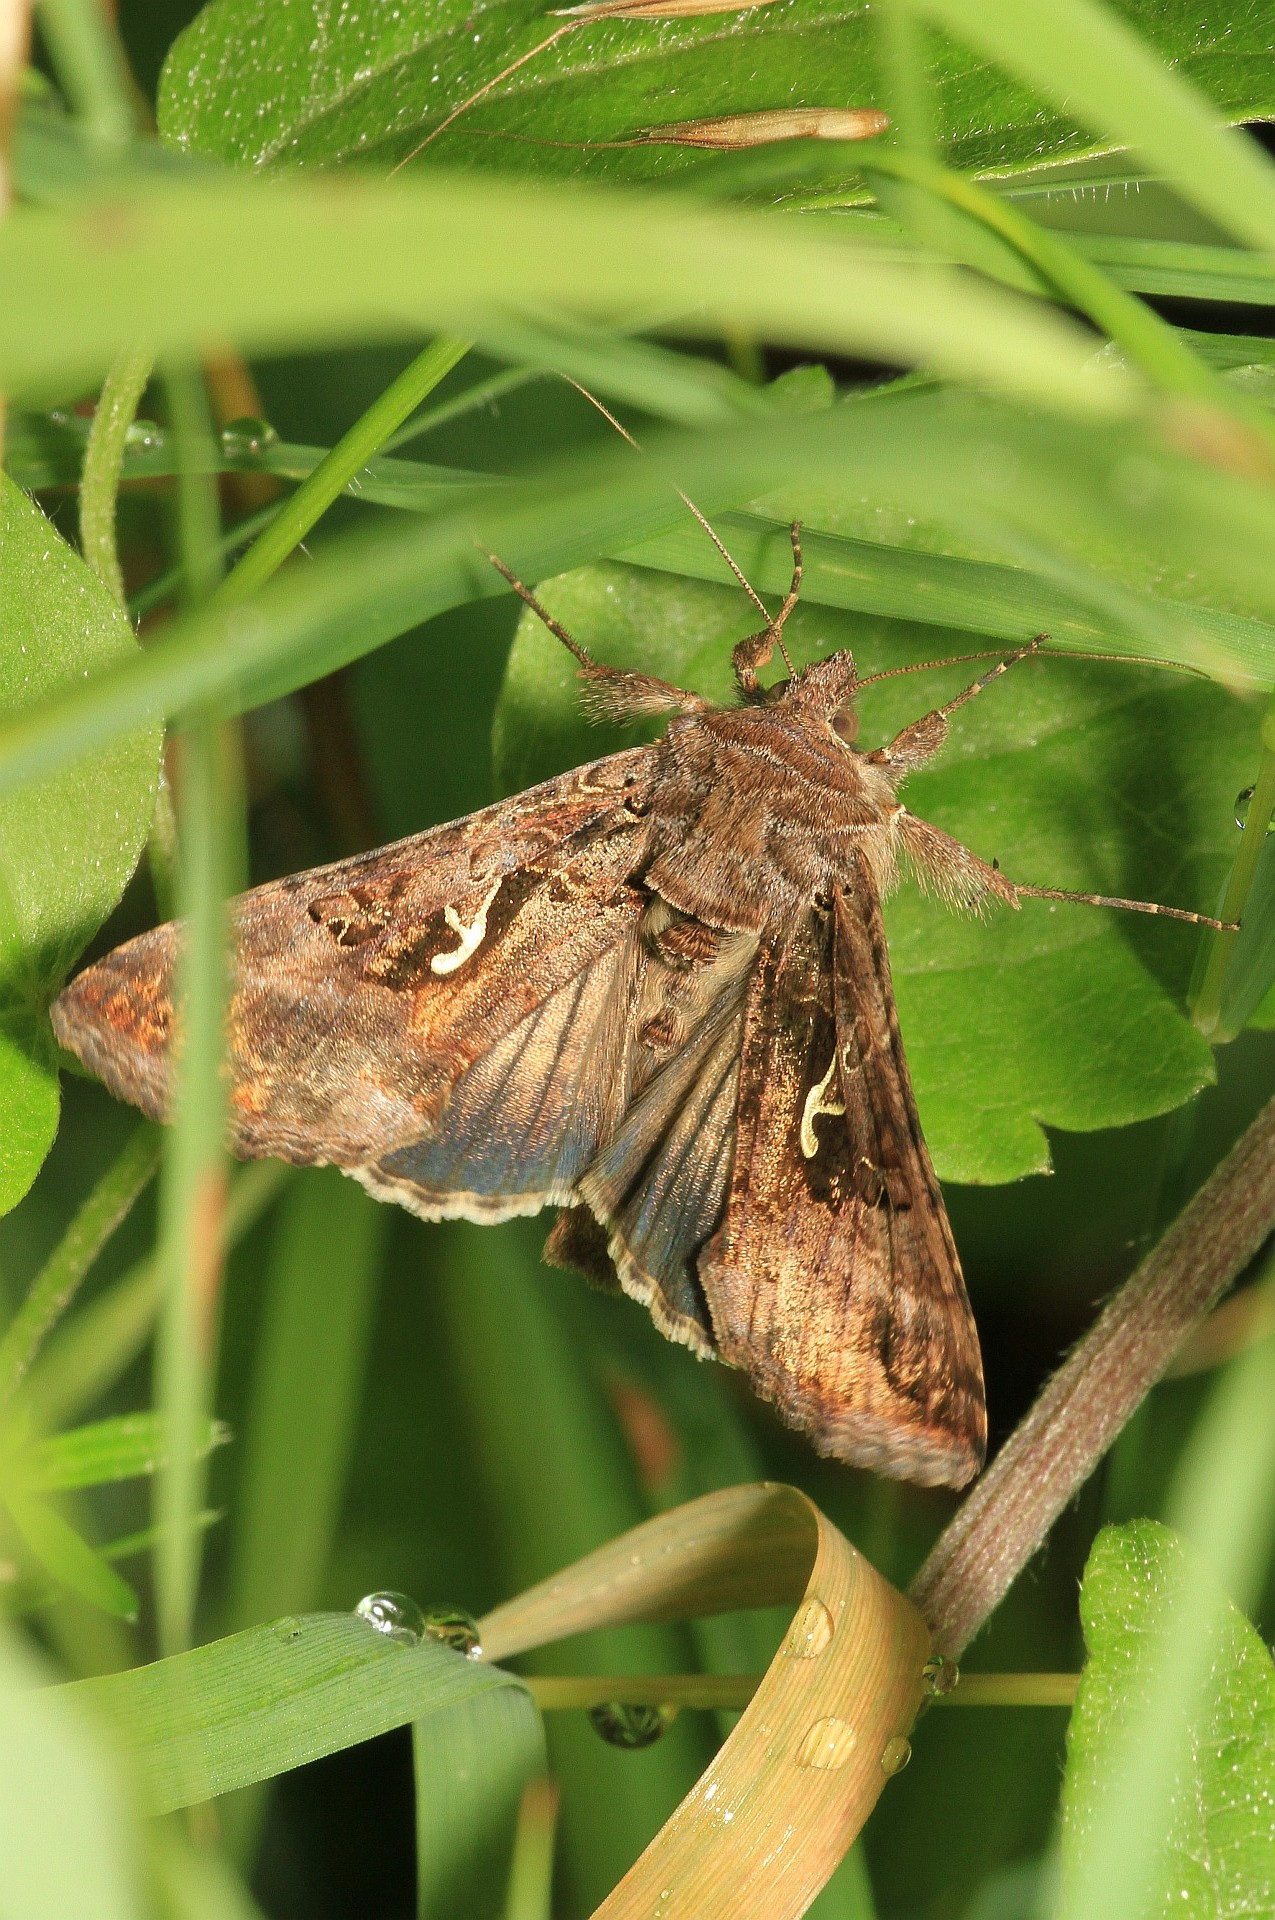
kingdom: Animalia
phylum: Arthropoda
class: Insecta
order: Lepidoptera
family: Noctuidae
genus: Autographa
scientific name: Autographa gamma
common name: Silver y
